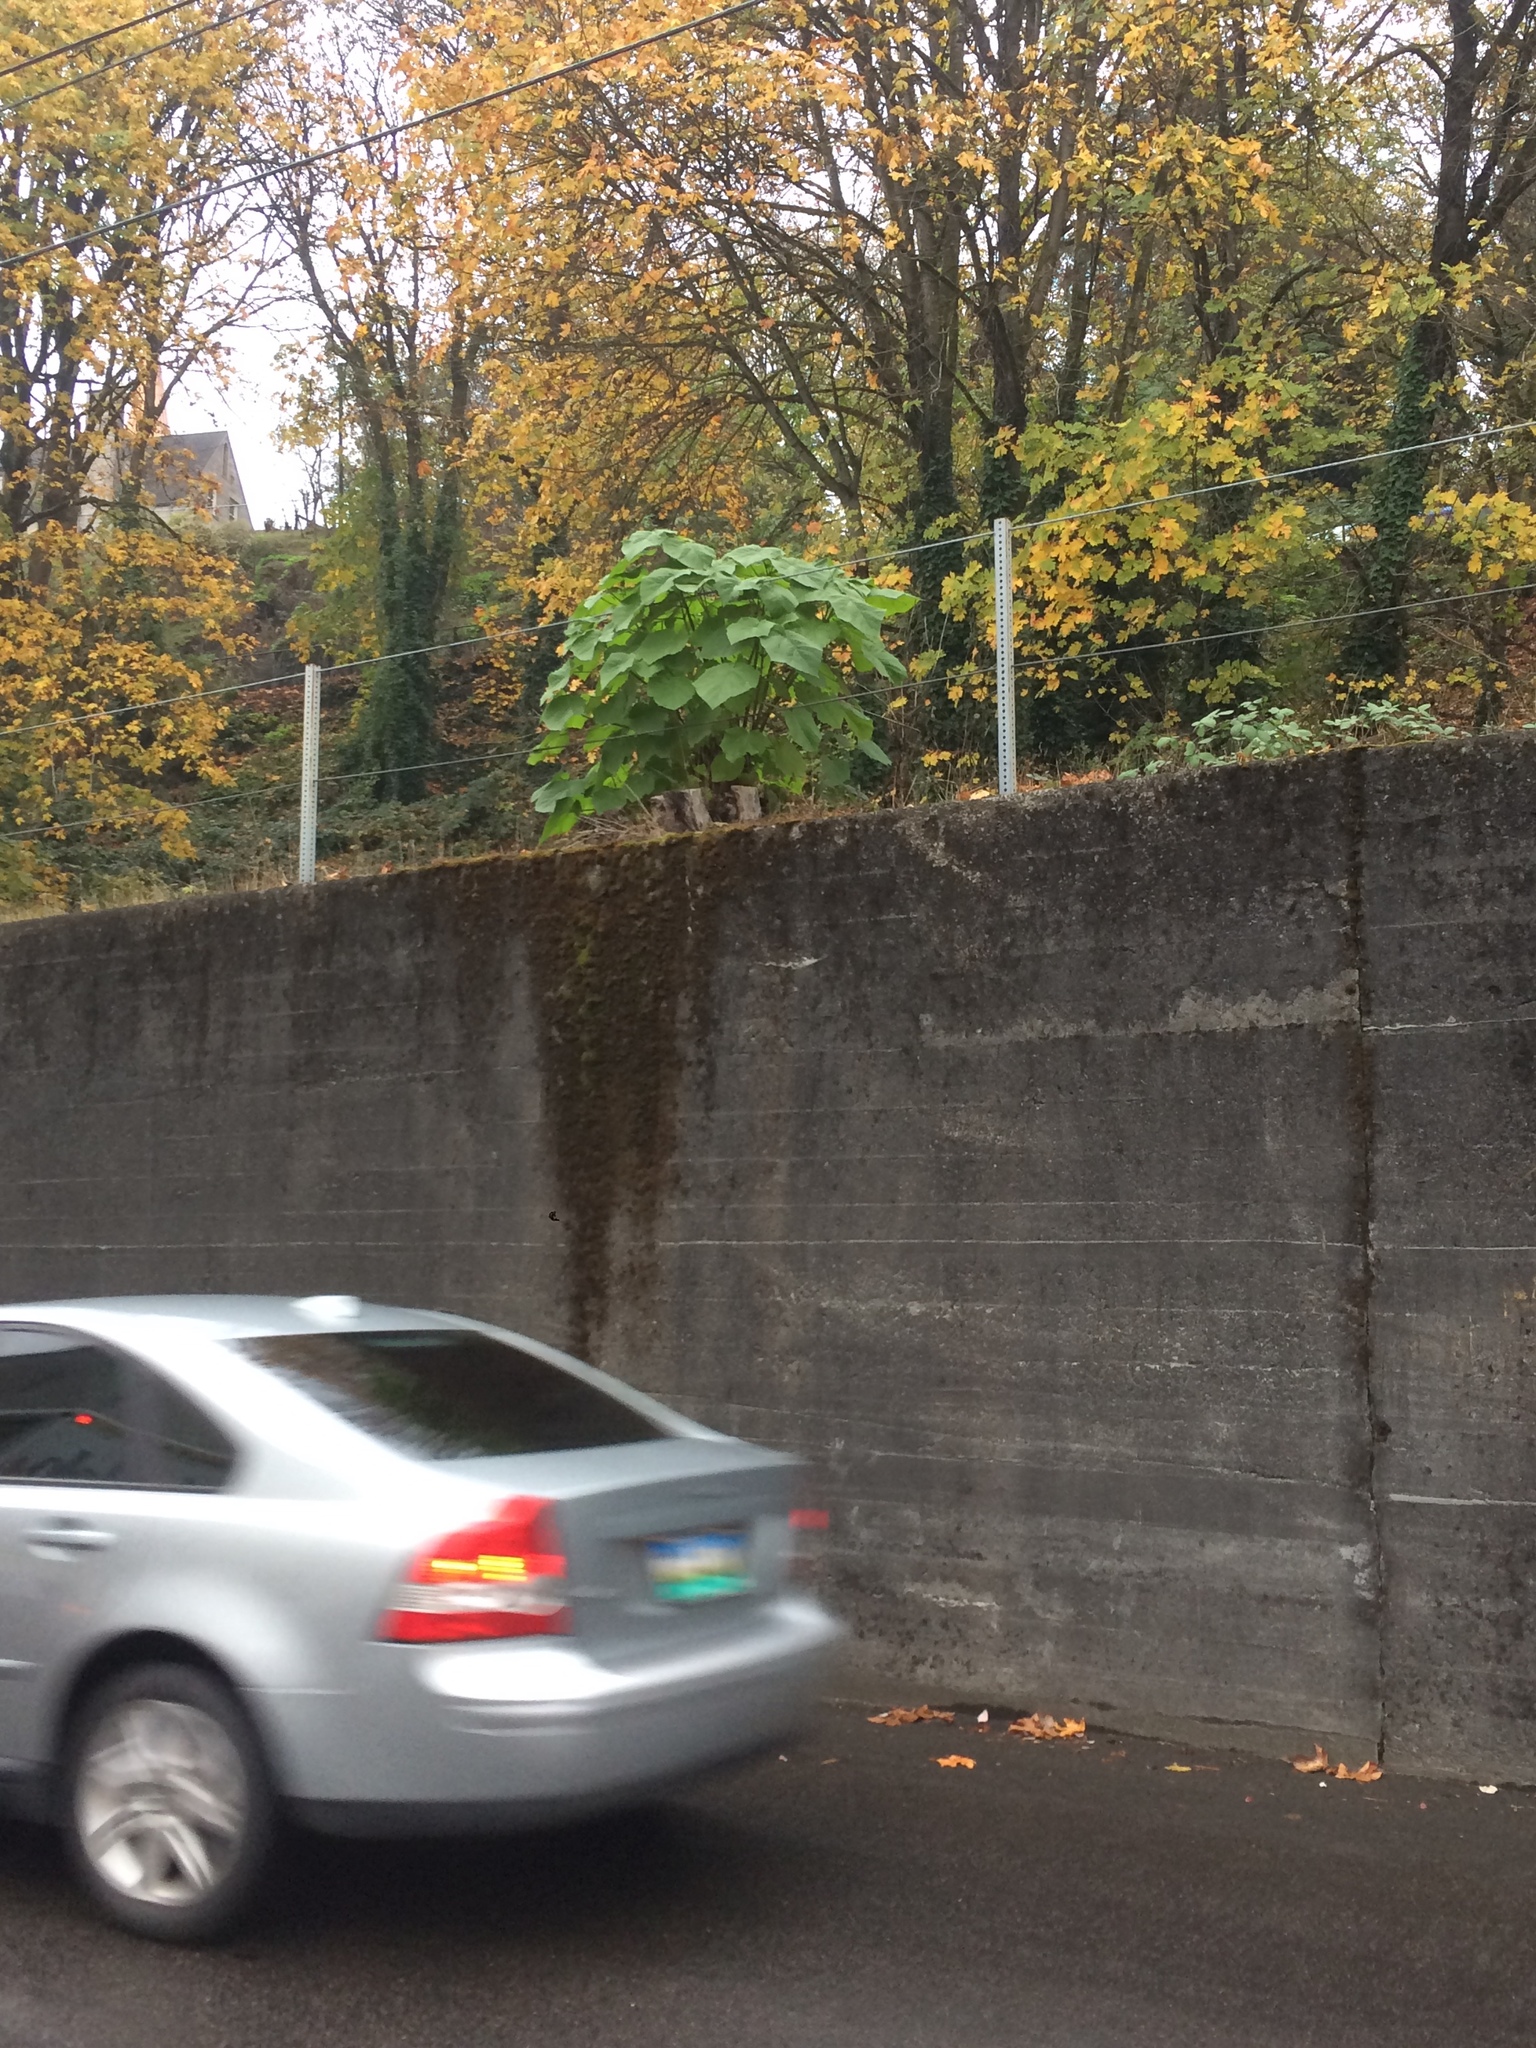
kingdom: Plantae
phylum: Tracheophyta
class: Magnoliopsida
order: Lamiales
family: Paulowniaceae
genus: Paulownia
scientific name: Paulownia tomentosa
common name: Foxglove-tree
